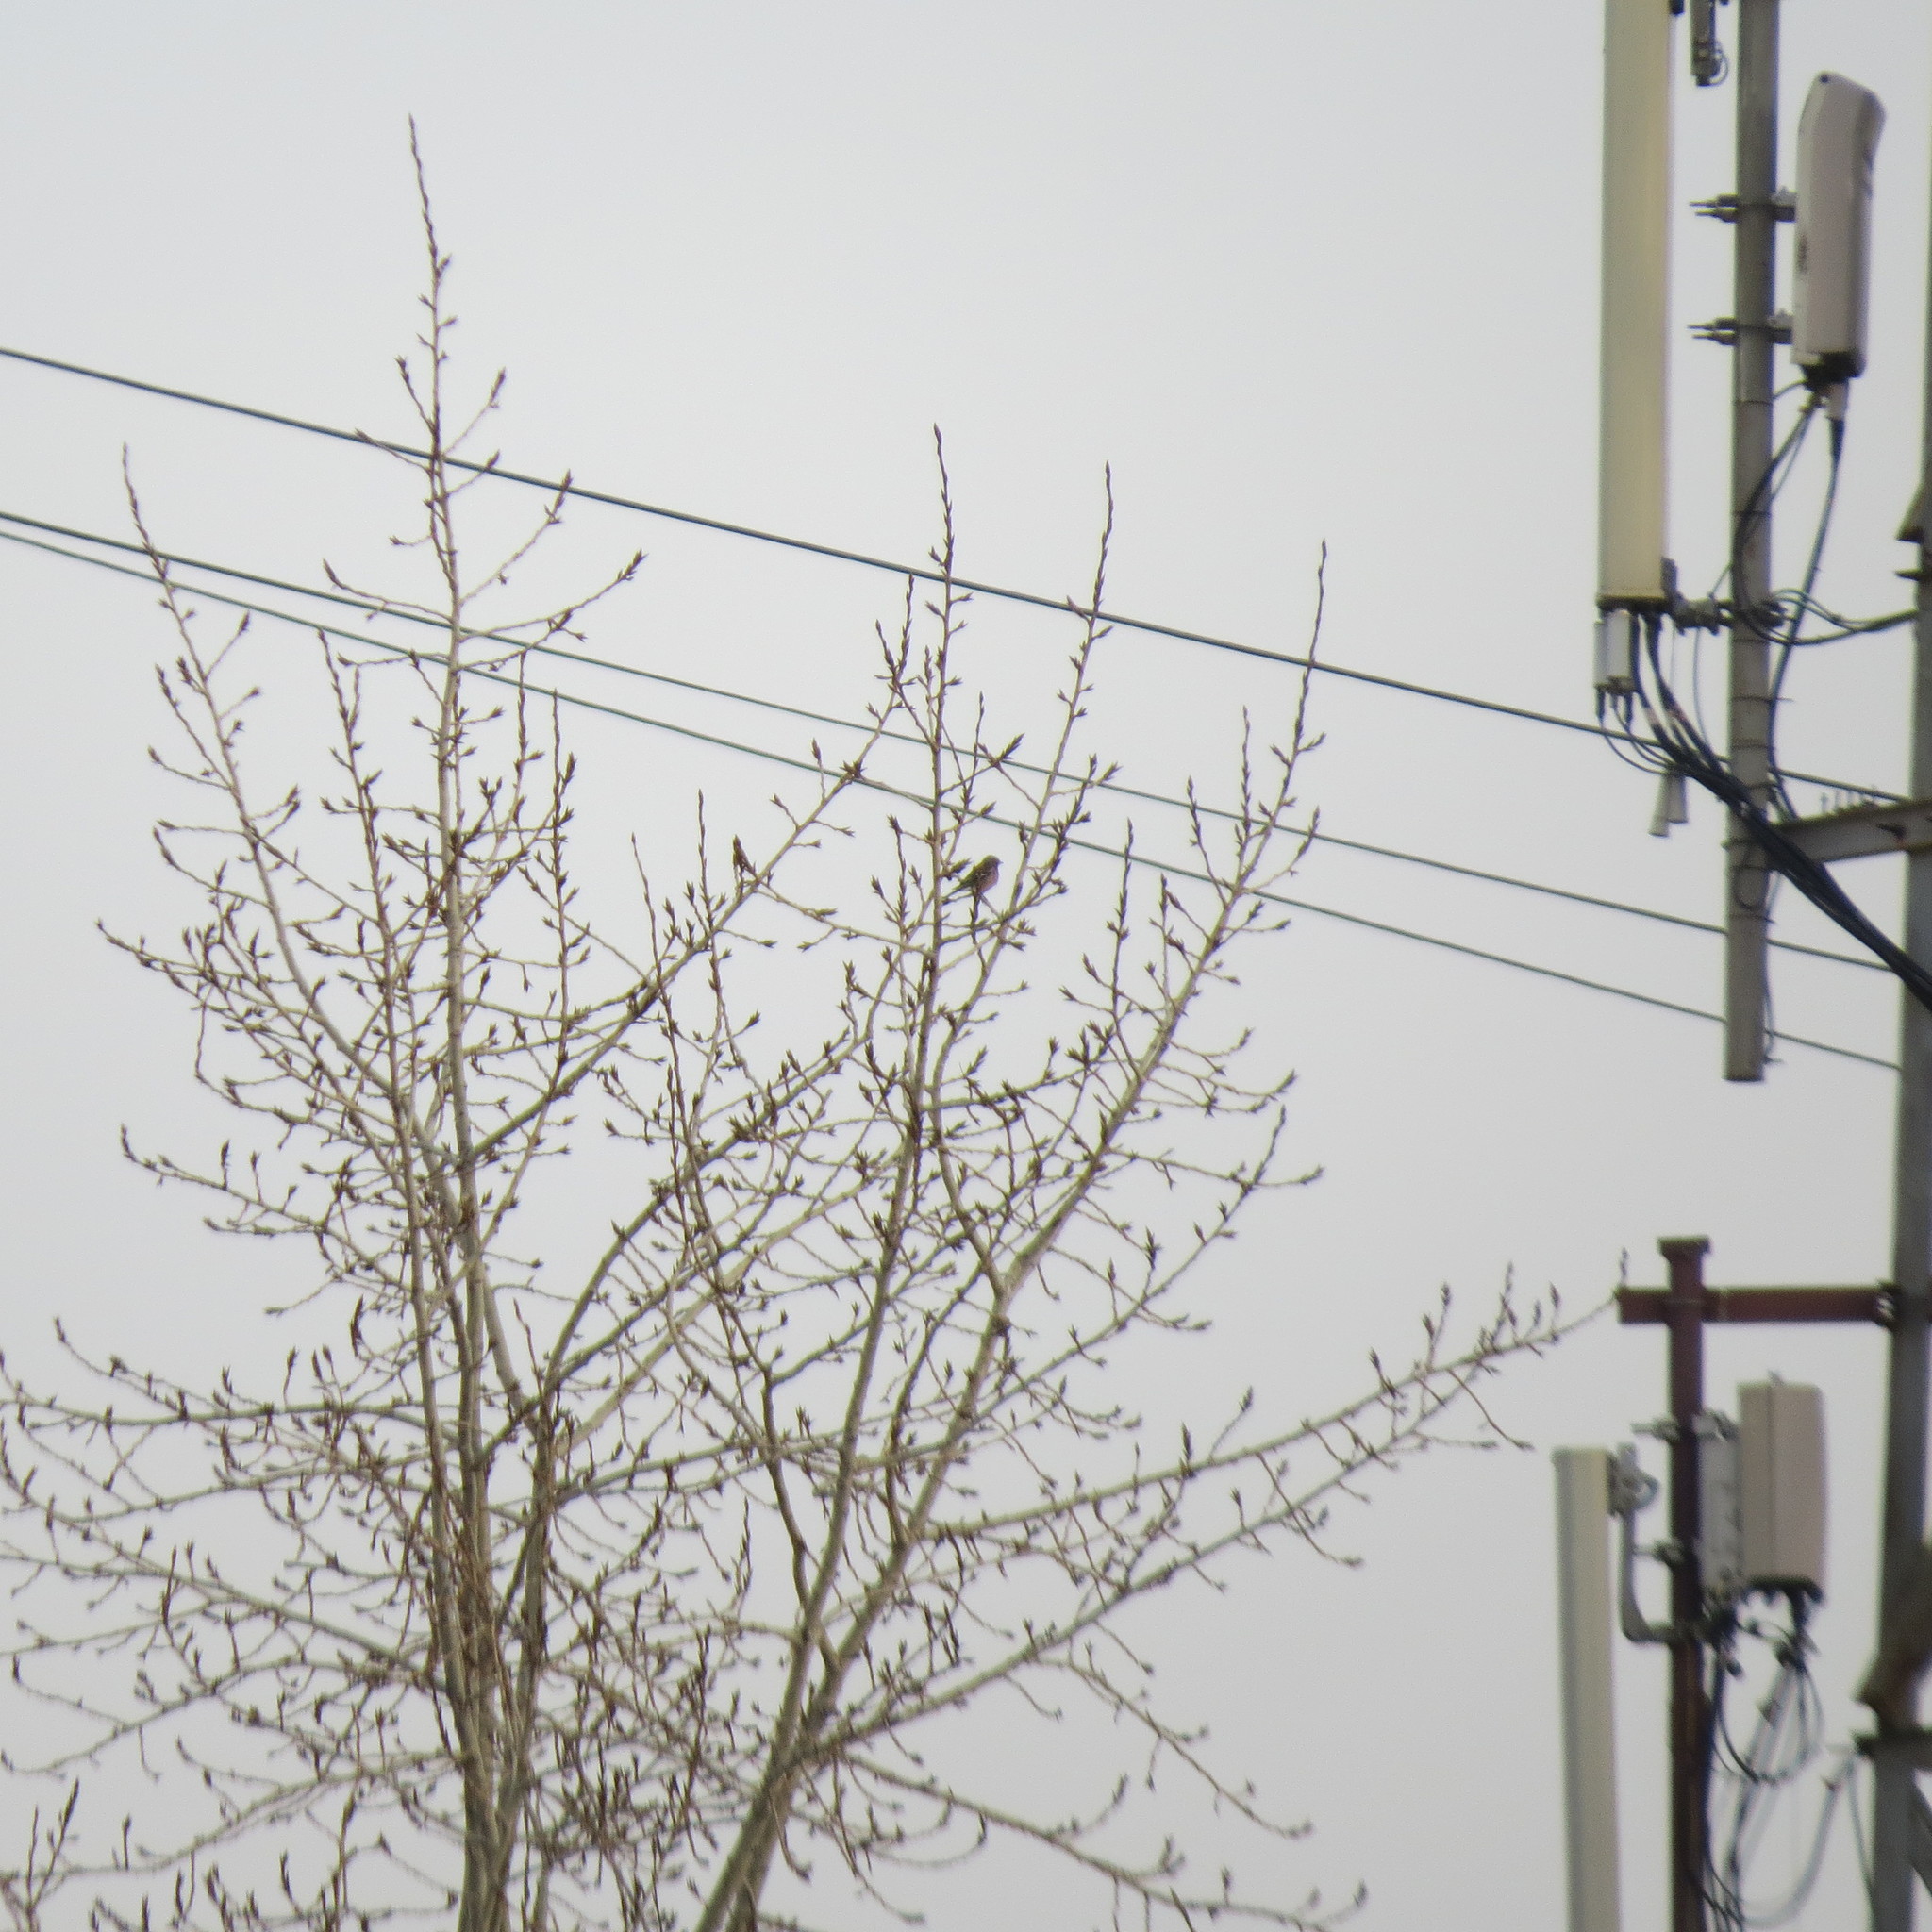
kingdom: Animalia
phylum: Chordata
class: Aves
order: Passeriformes
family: Fringillidae
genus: Fringilla
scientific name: Fringilla coelebs
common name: Common chaffinch
